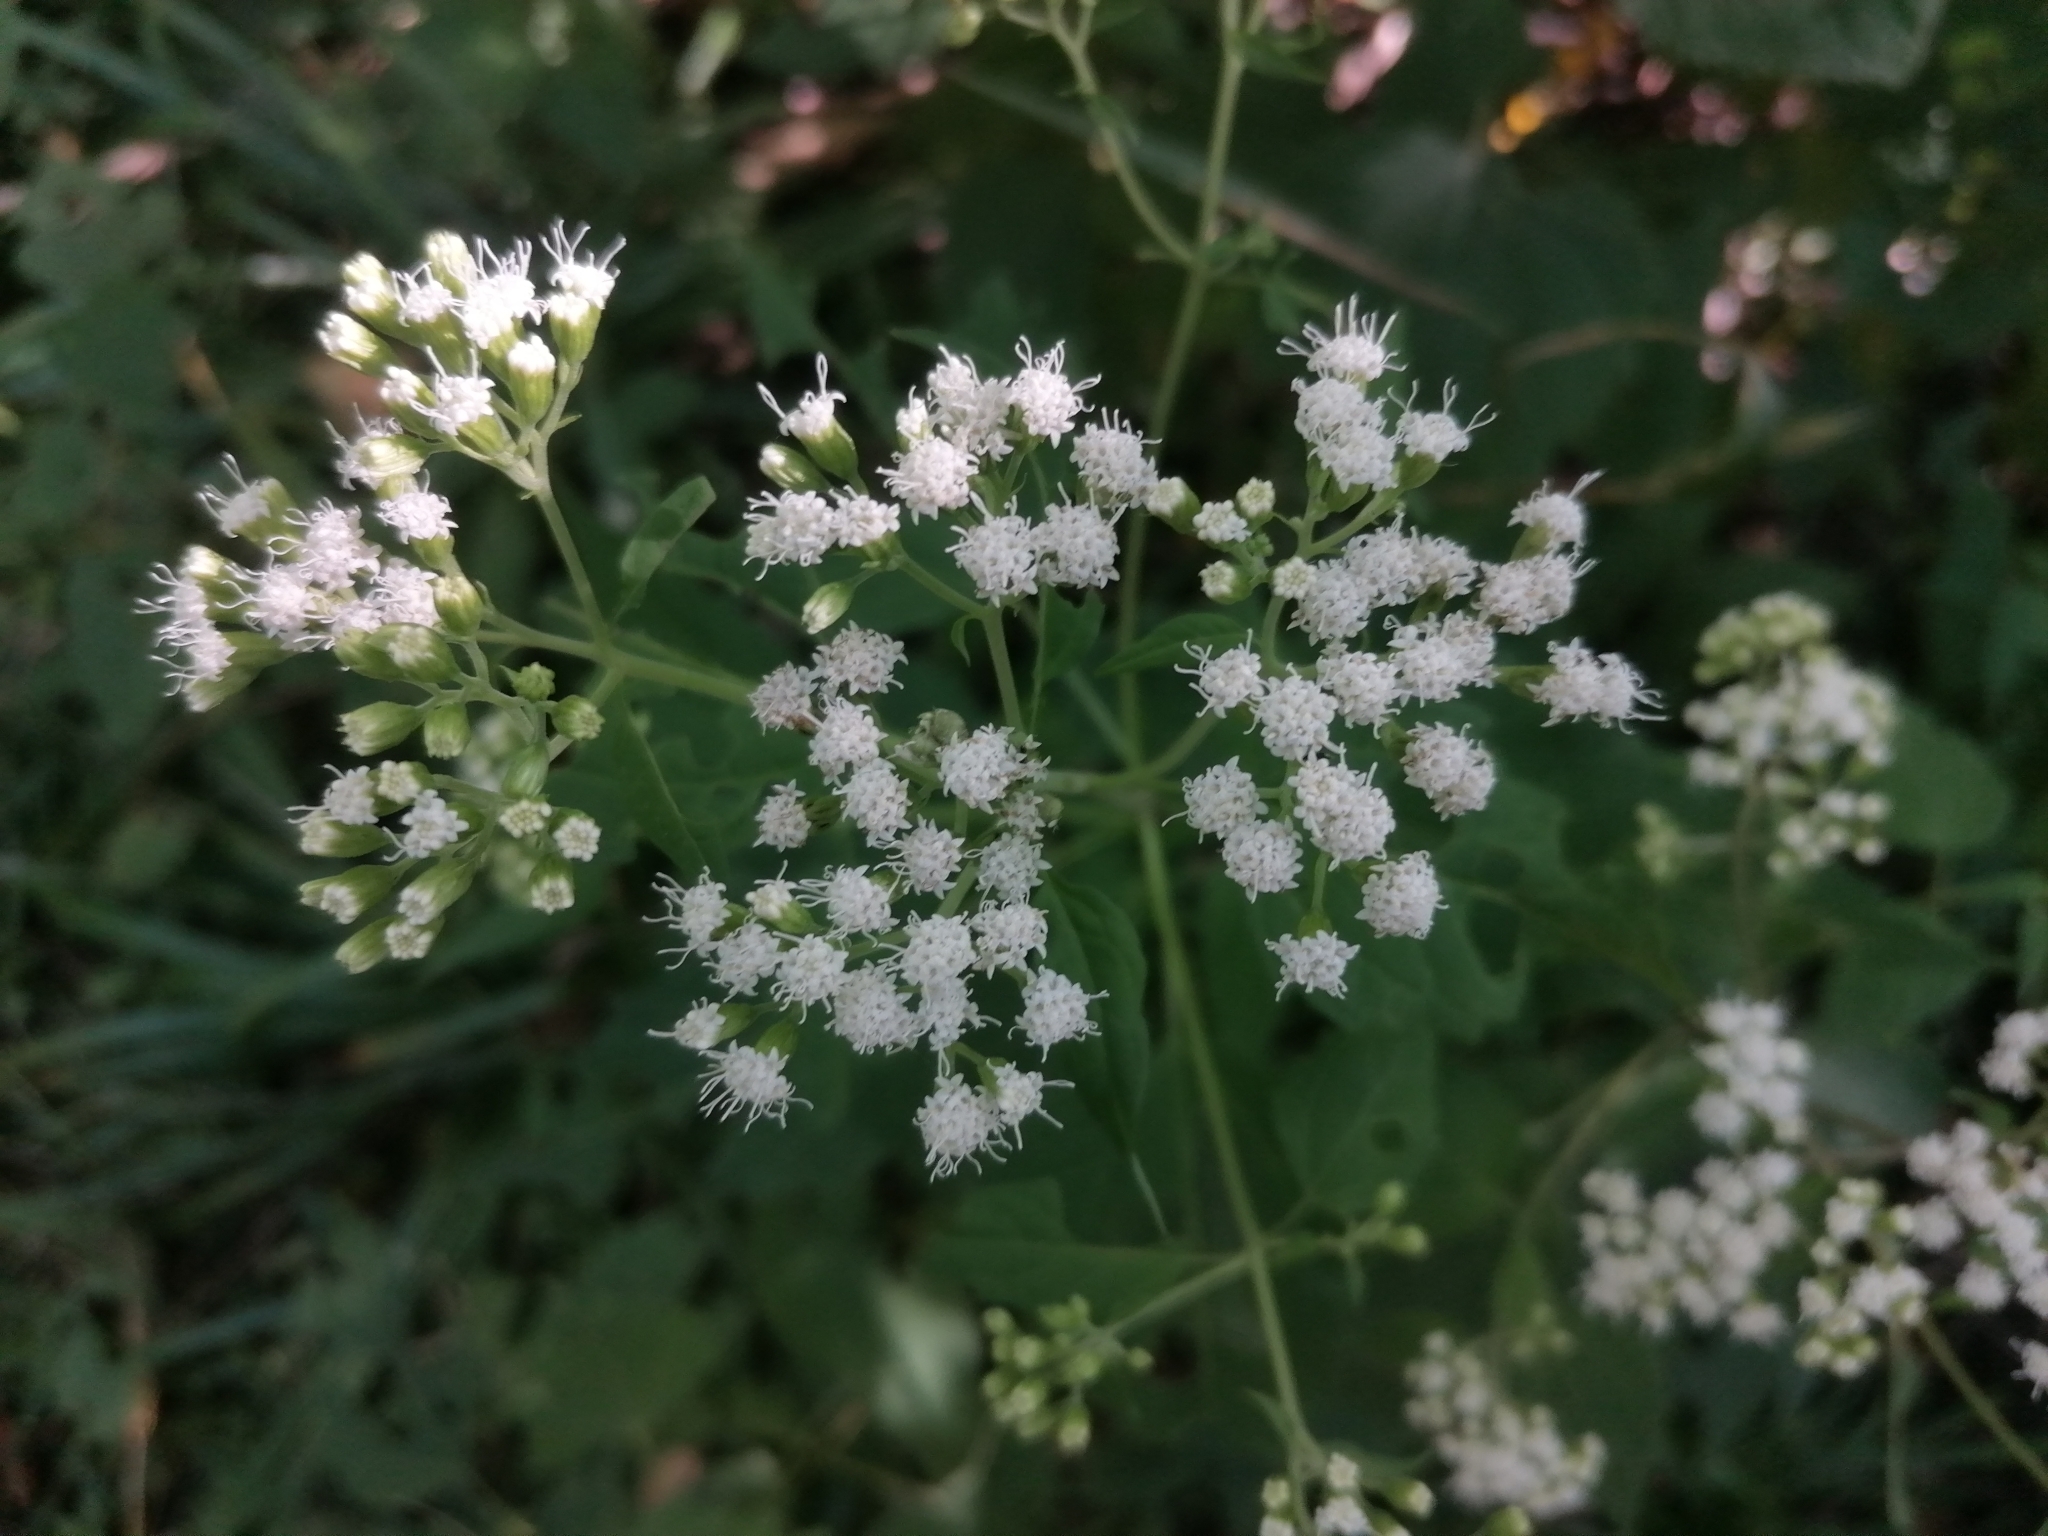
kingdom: Plantae
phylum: Tracheophyta
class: Magnoliopsida
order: Asterales
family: Asteraceae
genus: Ageratina
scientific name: Ageratina altissima
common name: White snakeroot
